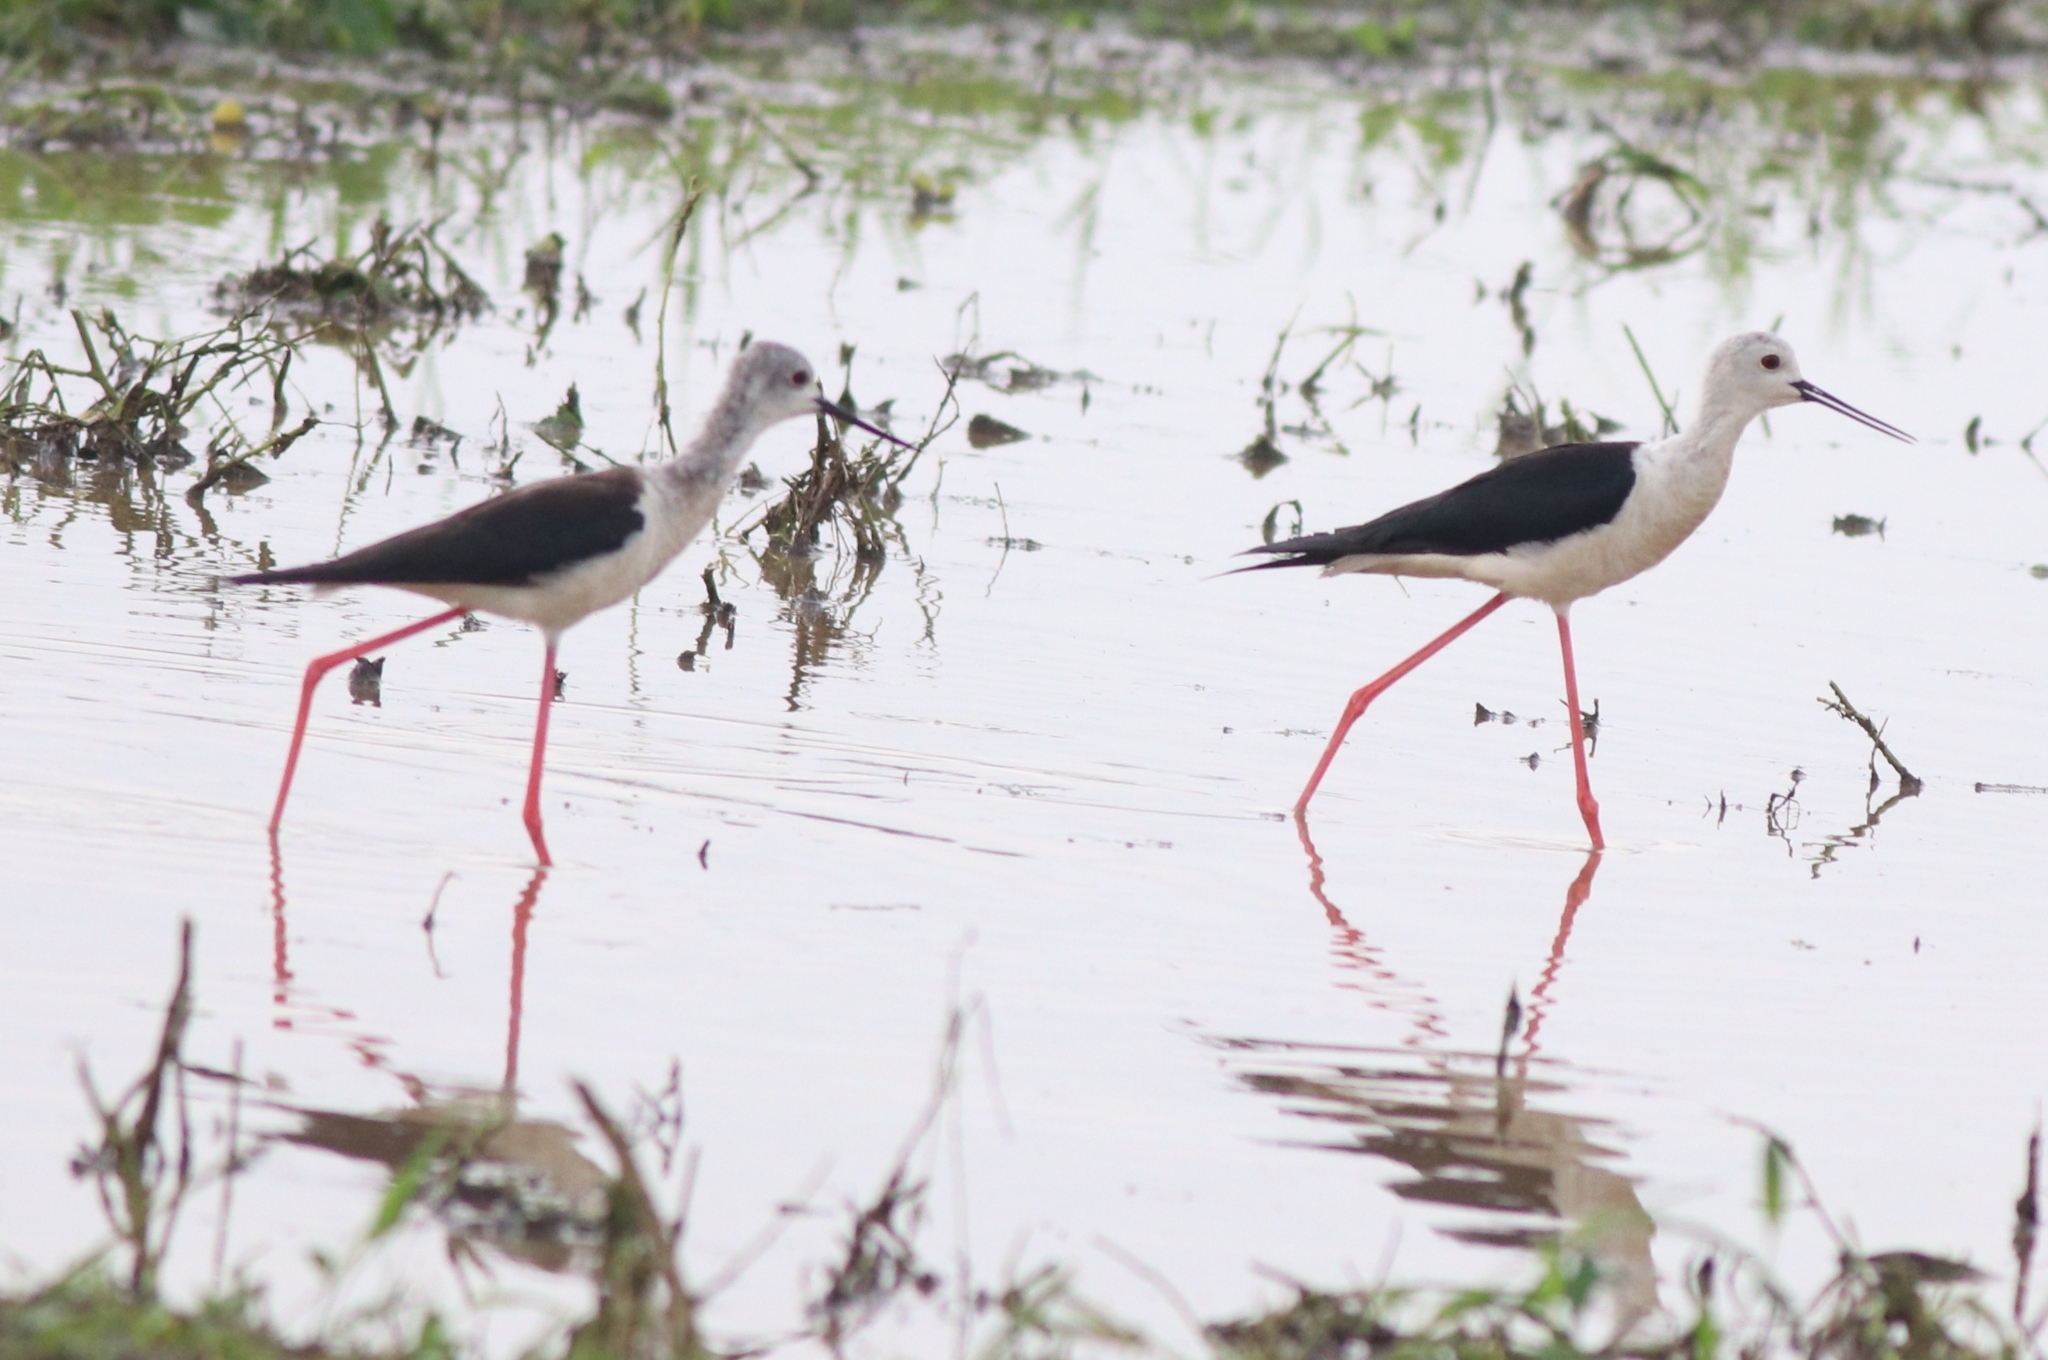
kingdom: Animalia
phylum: Chordata
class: Aves
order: Charadriiformes
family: Recurvirostridae
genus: Himantopus
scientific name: Himantopus himantopus
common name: Black-winged stilt
